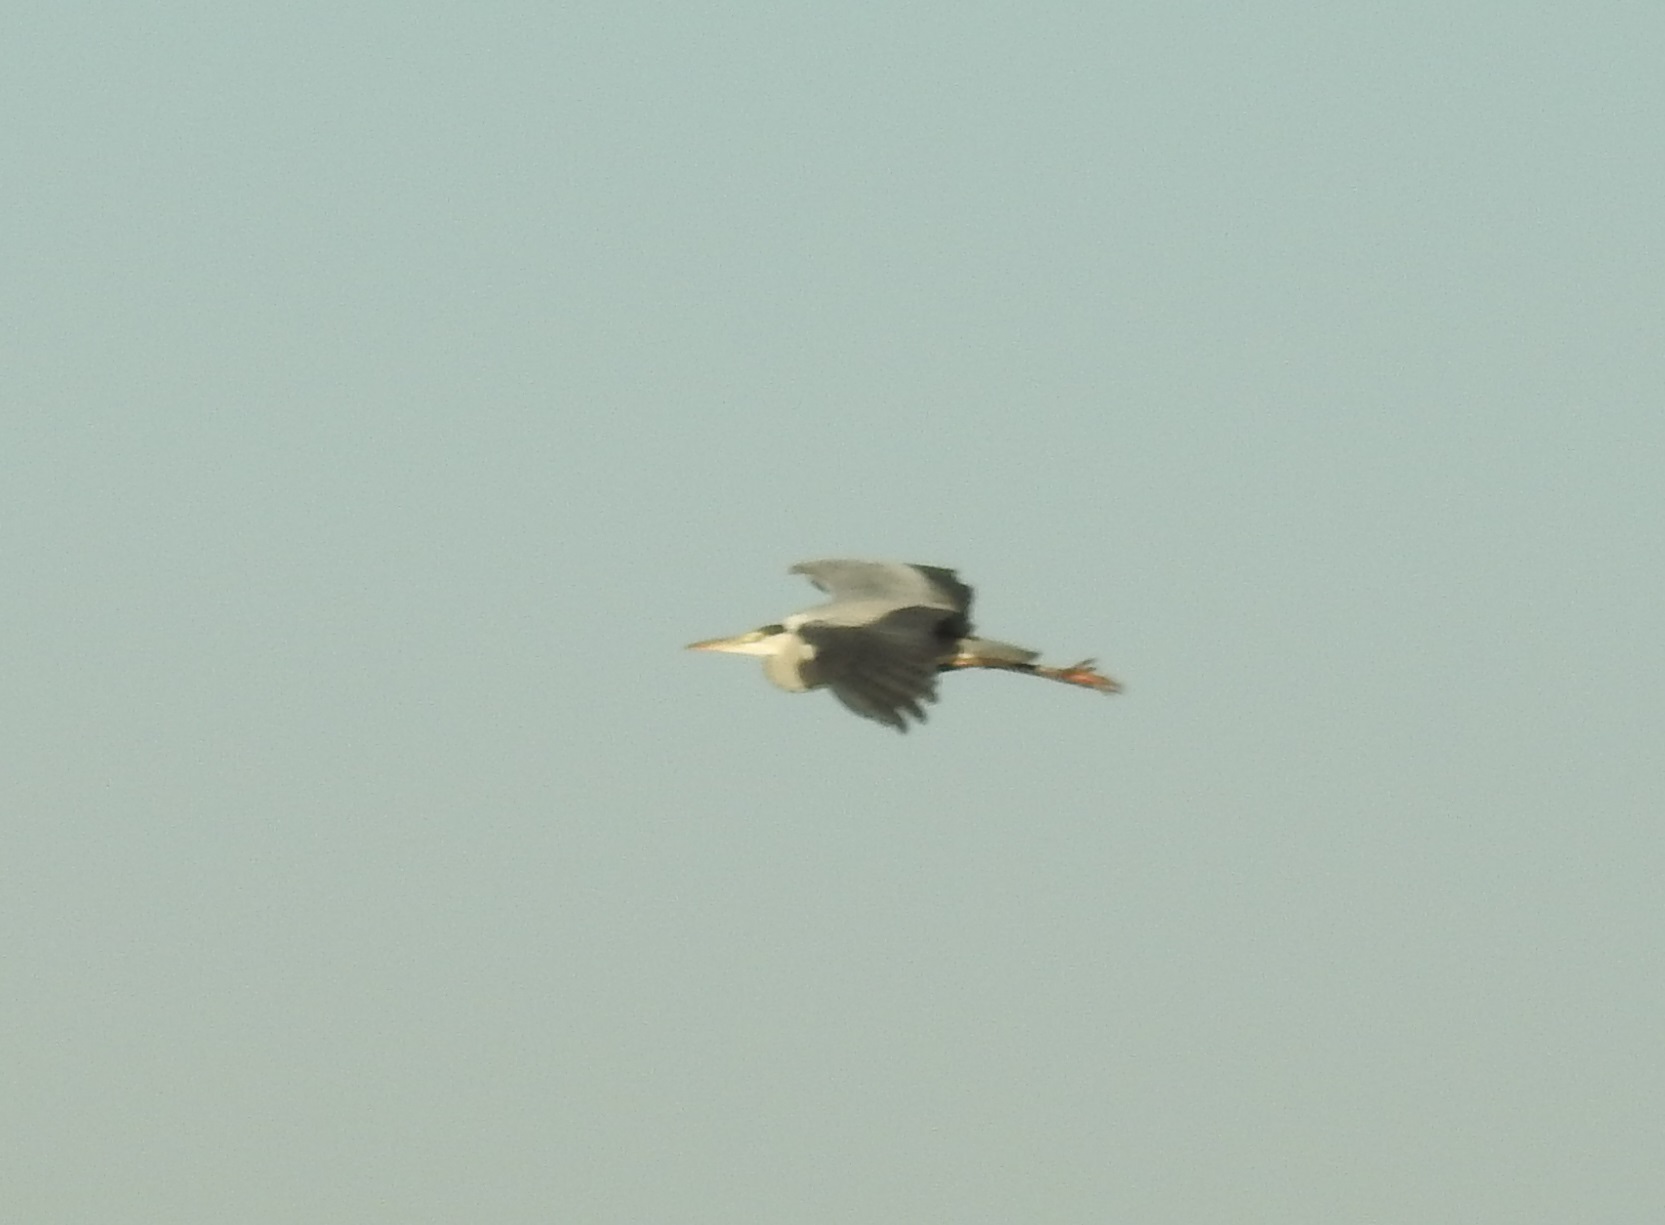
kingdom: Animalia
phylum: Chordata
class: Aves
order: Pelecaniformes
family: Ardeidae
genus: Ardea
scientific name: Ardea cinerea
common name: Grey heron
